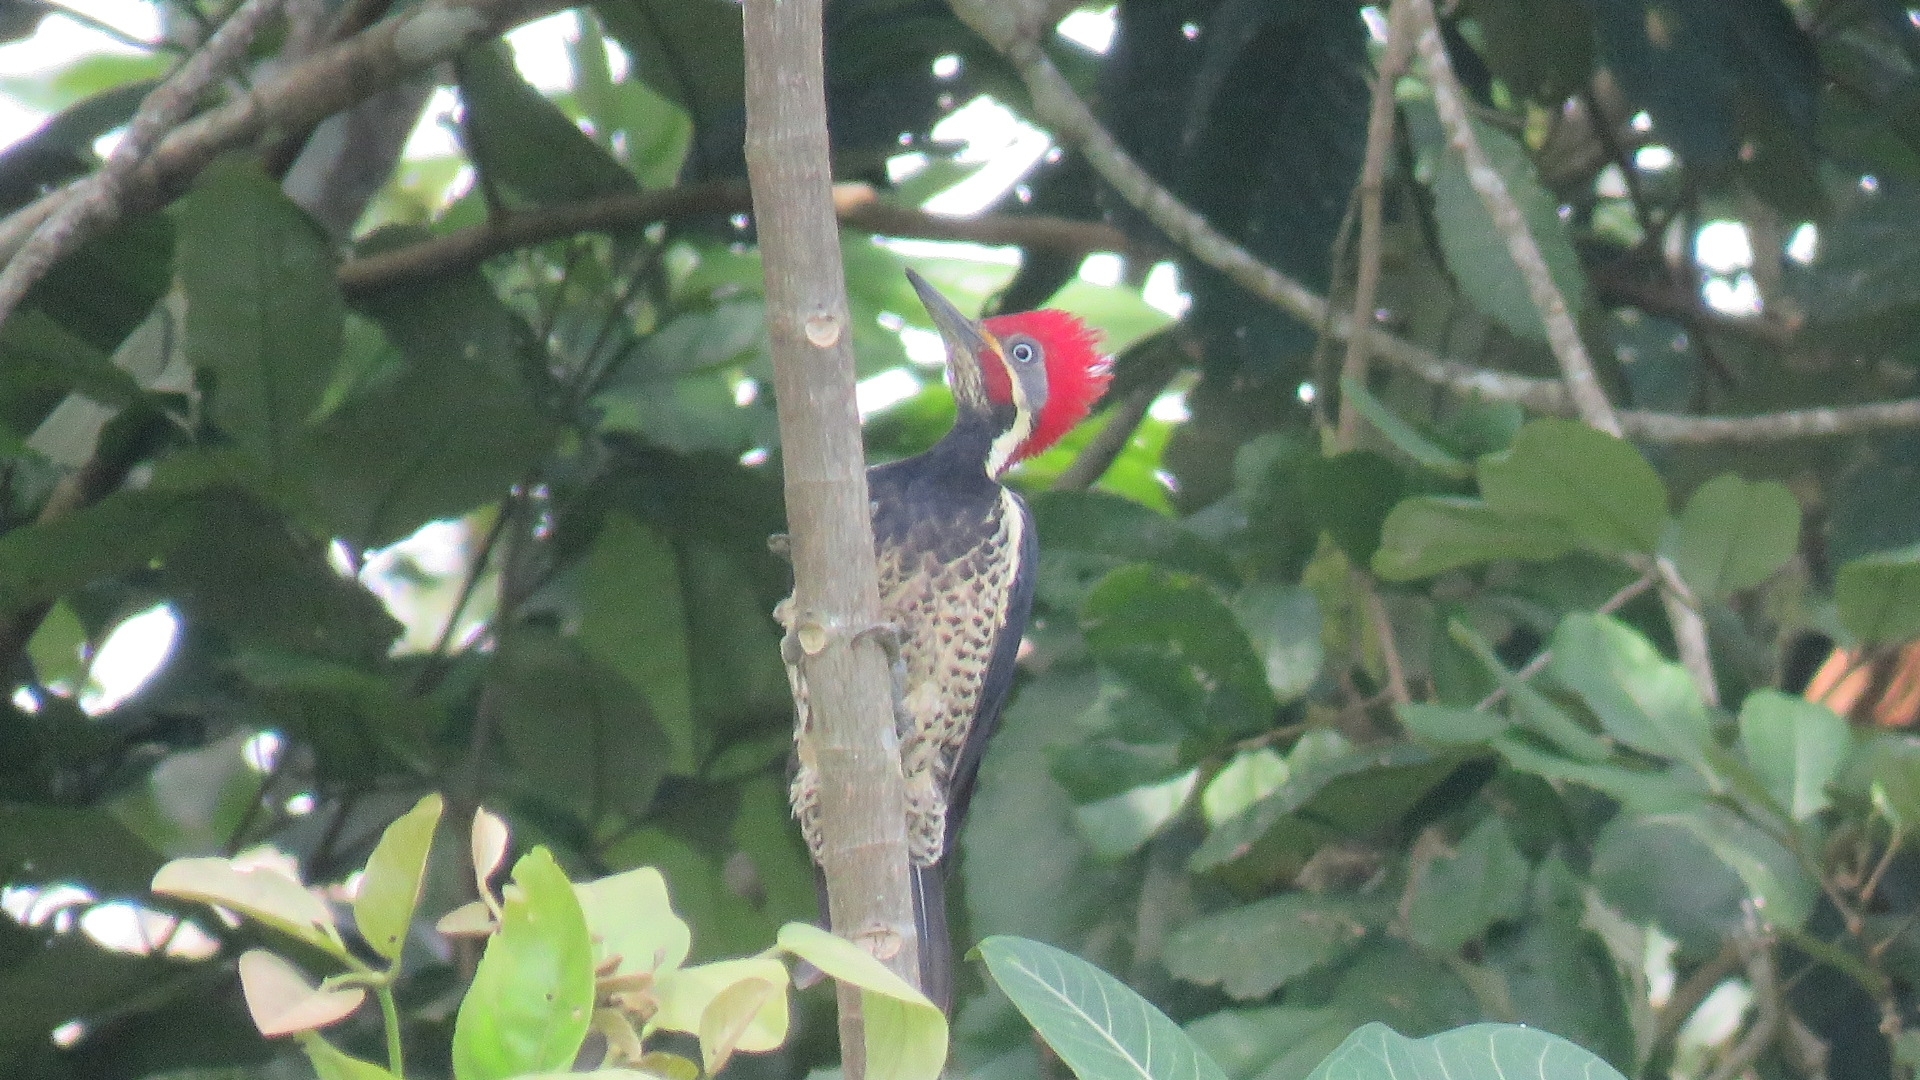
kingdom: Animalia
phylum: Chordata
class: Aves
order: Piciformes
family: Picidae
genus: Dryocopus
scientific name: Dryocopus lineatus
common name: Lineated woodpecker
